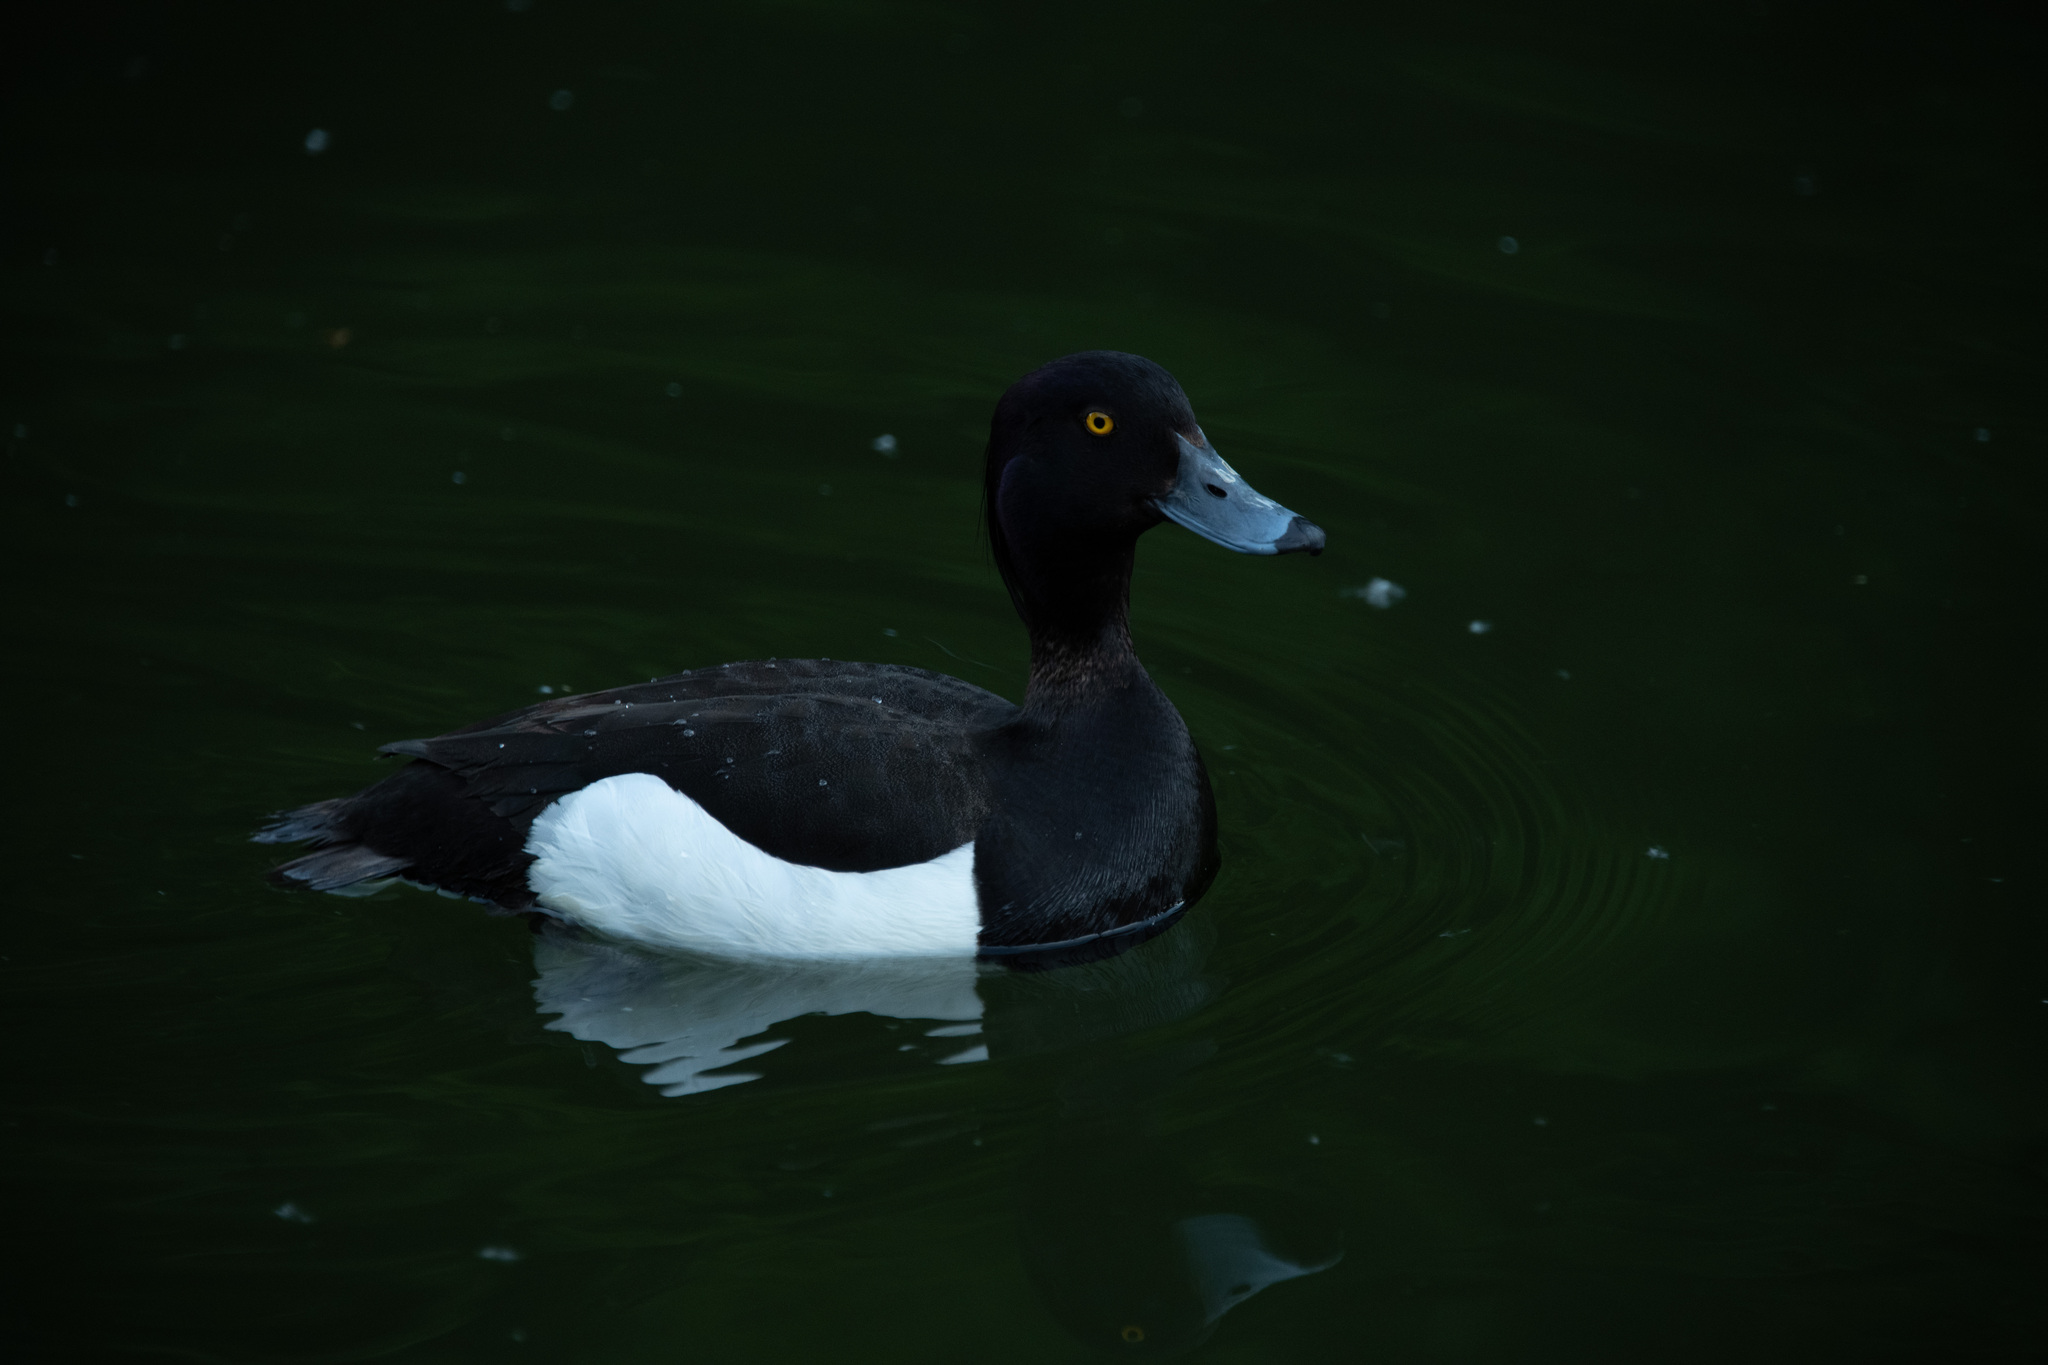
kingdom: Animalia
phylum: Chordata
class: Aves
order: Anseriformes
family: Anatidae
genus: Aythya
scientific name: Aythya fuligula
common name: Tufted duck
